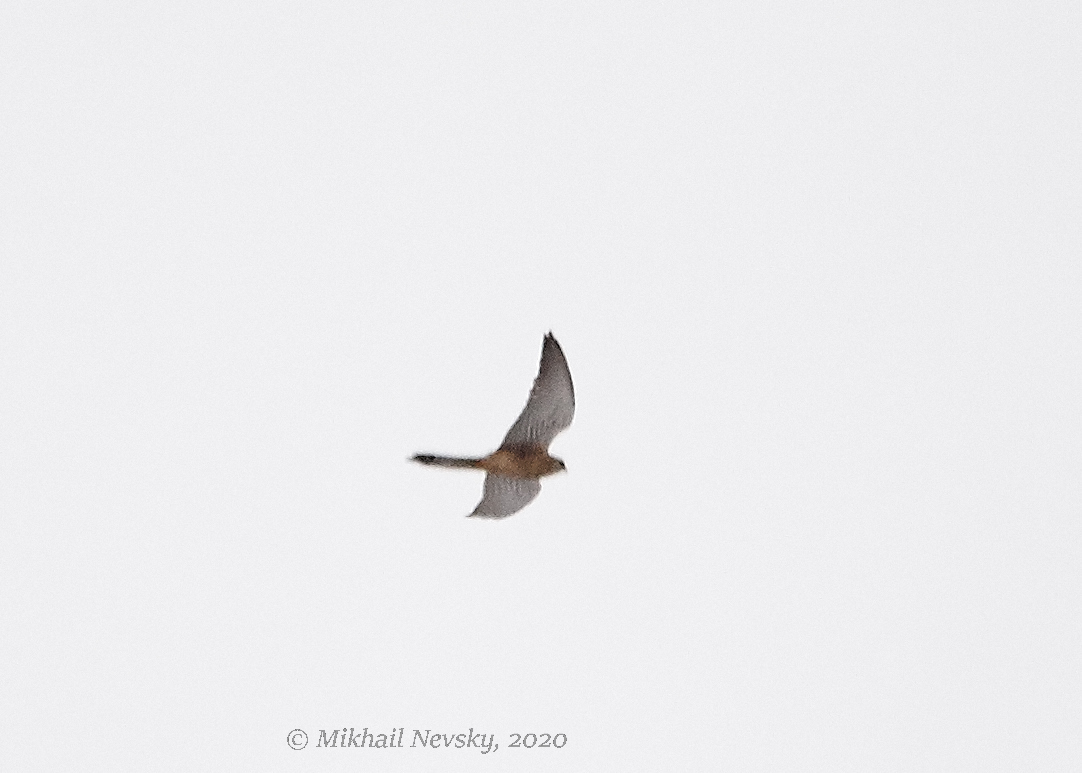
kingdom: Animalia
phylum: Chordata
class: Aves
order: Falconiformes
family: Falconidae
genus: Falco
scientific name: Falco tinnunculus
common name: Common kestrel
